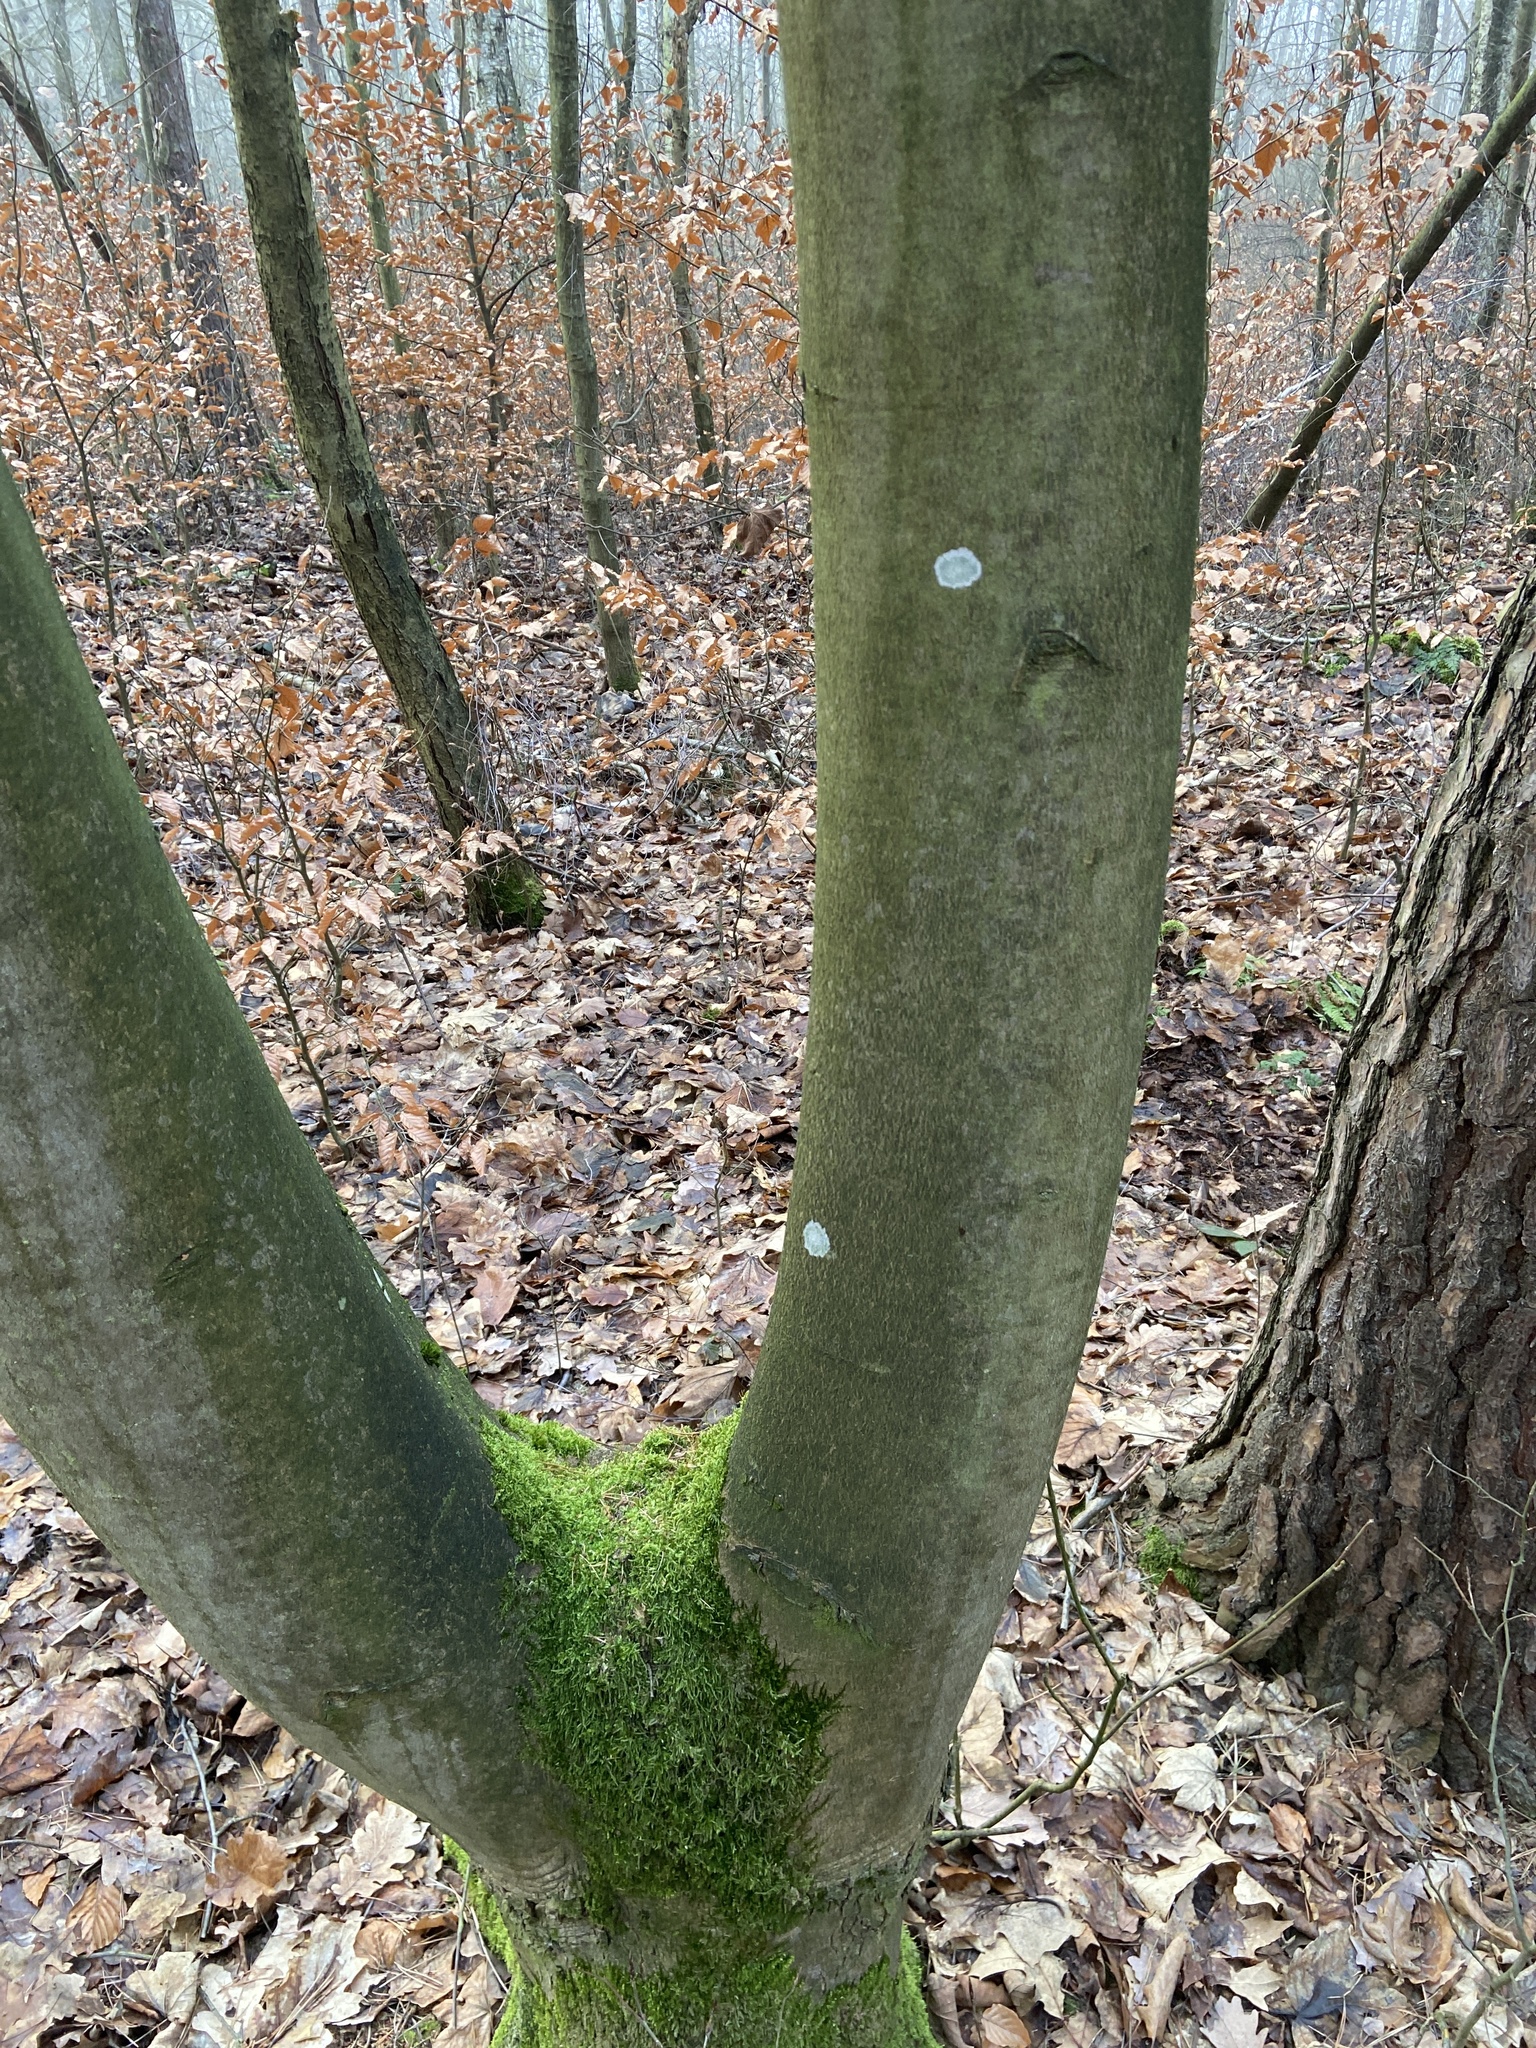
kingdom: Fungi
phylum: Ascomycota
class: Lecanoromycetes
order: Ostropales
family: Phlyctidaceae
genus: Phlyctis
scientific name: Phlyctis argena
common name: Whitewash lichen
